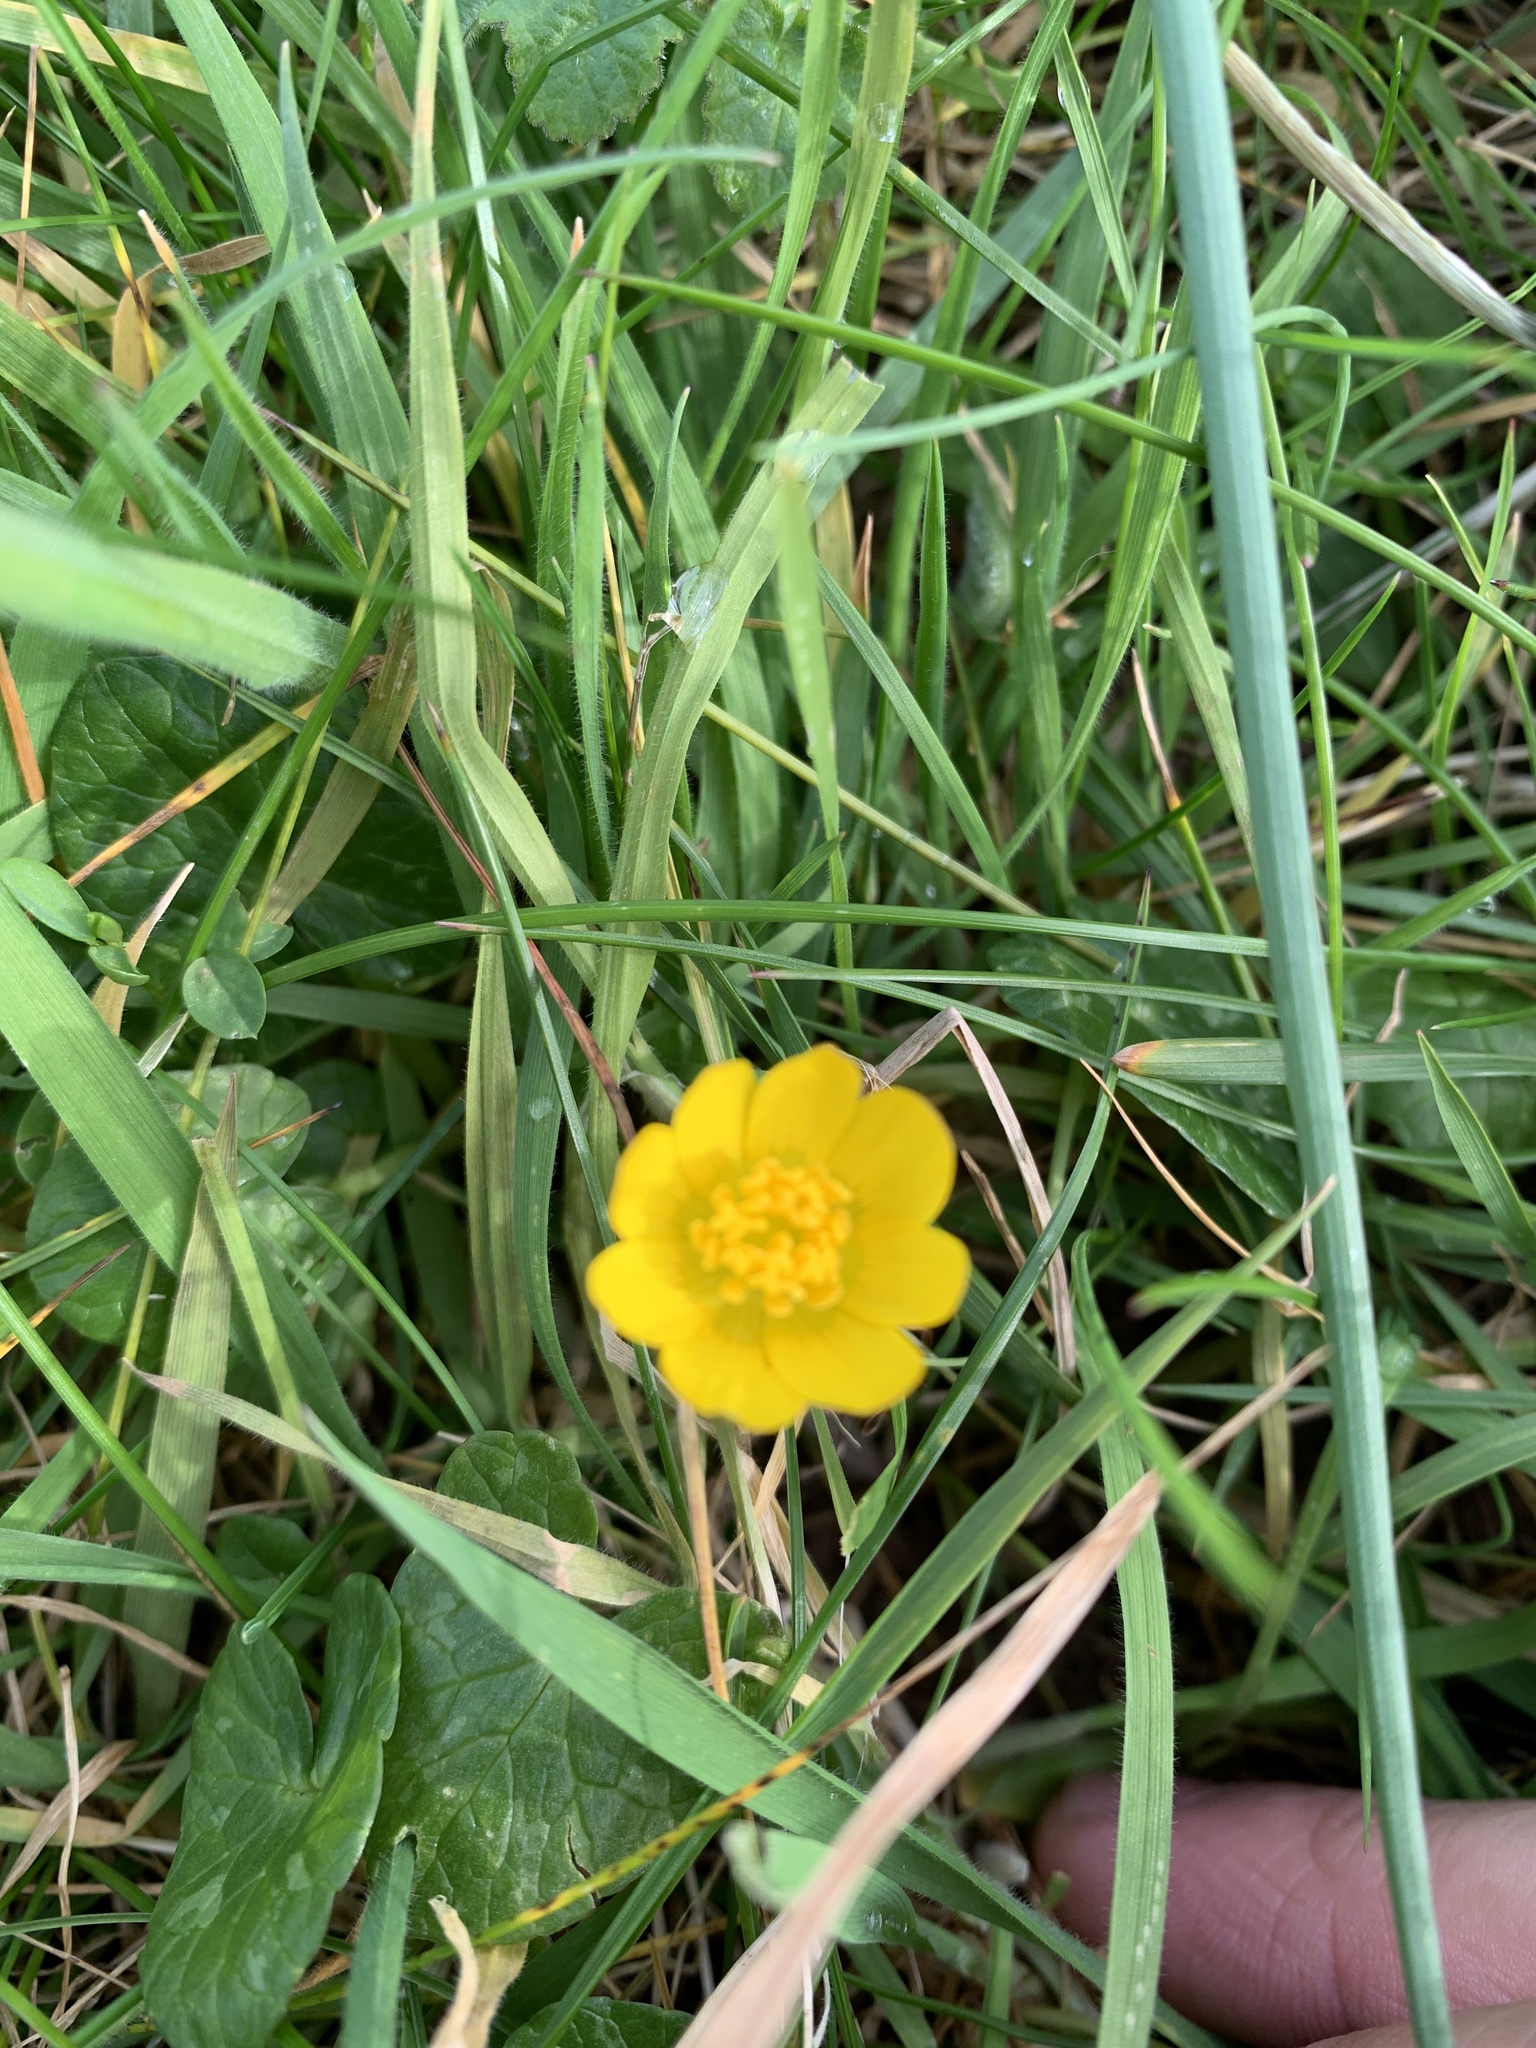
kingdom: Plantae
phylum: Tracheophyta
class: Magnoliopsida
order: Ranunculales
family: Ranunculaceae
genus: Ficaria
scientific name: Ficaria verna
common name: Lesser celandine
